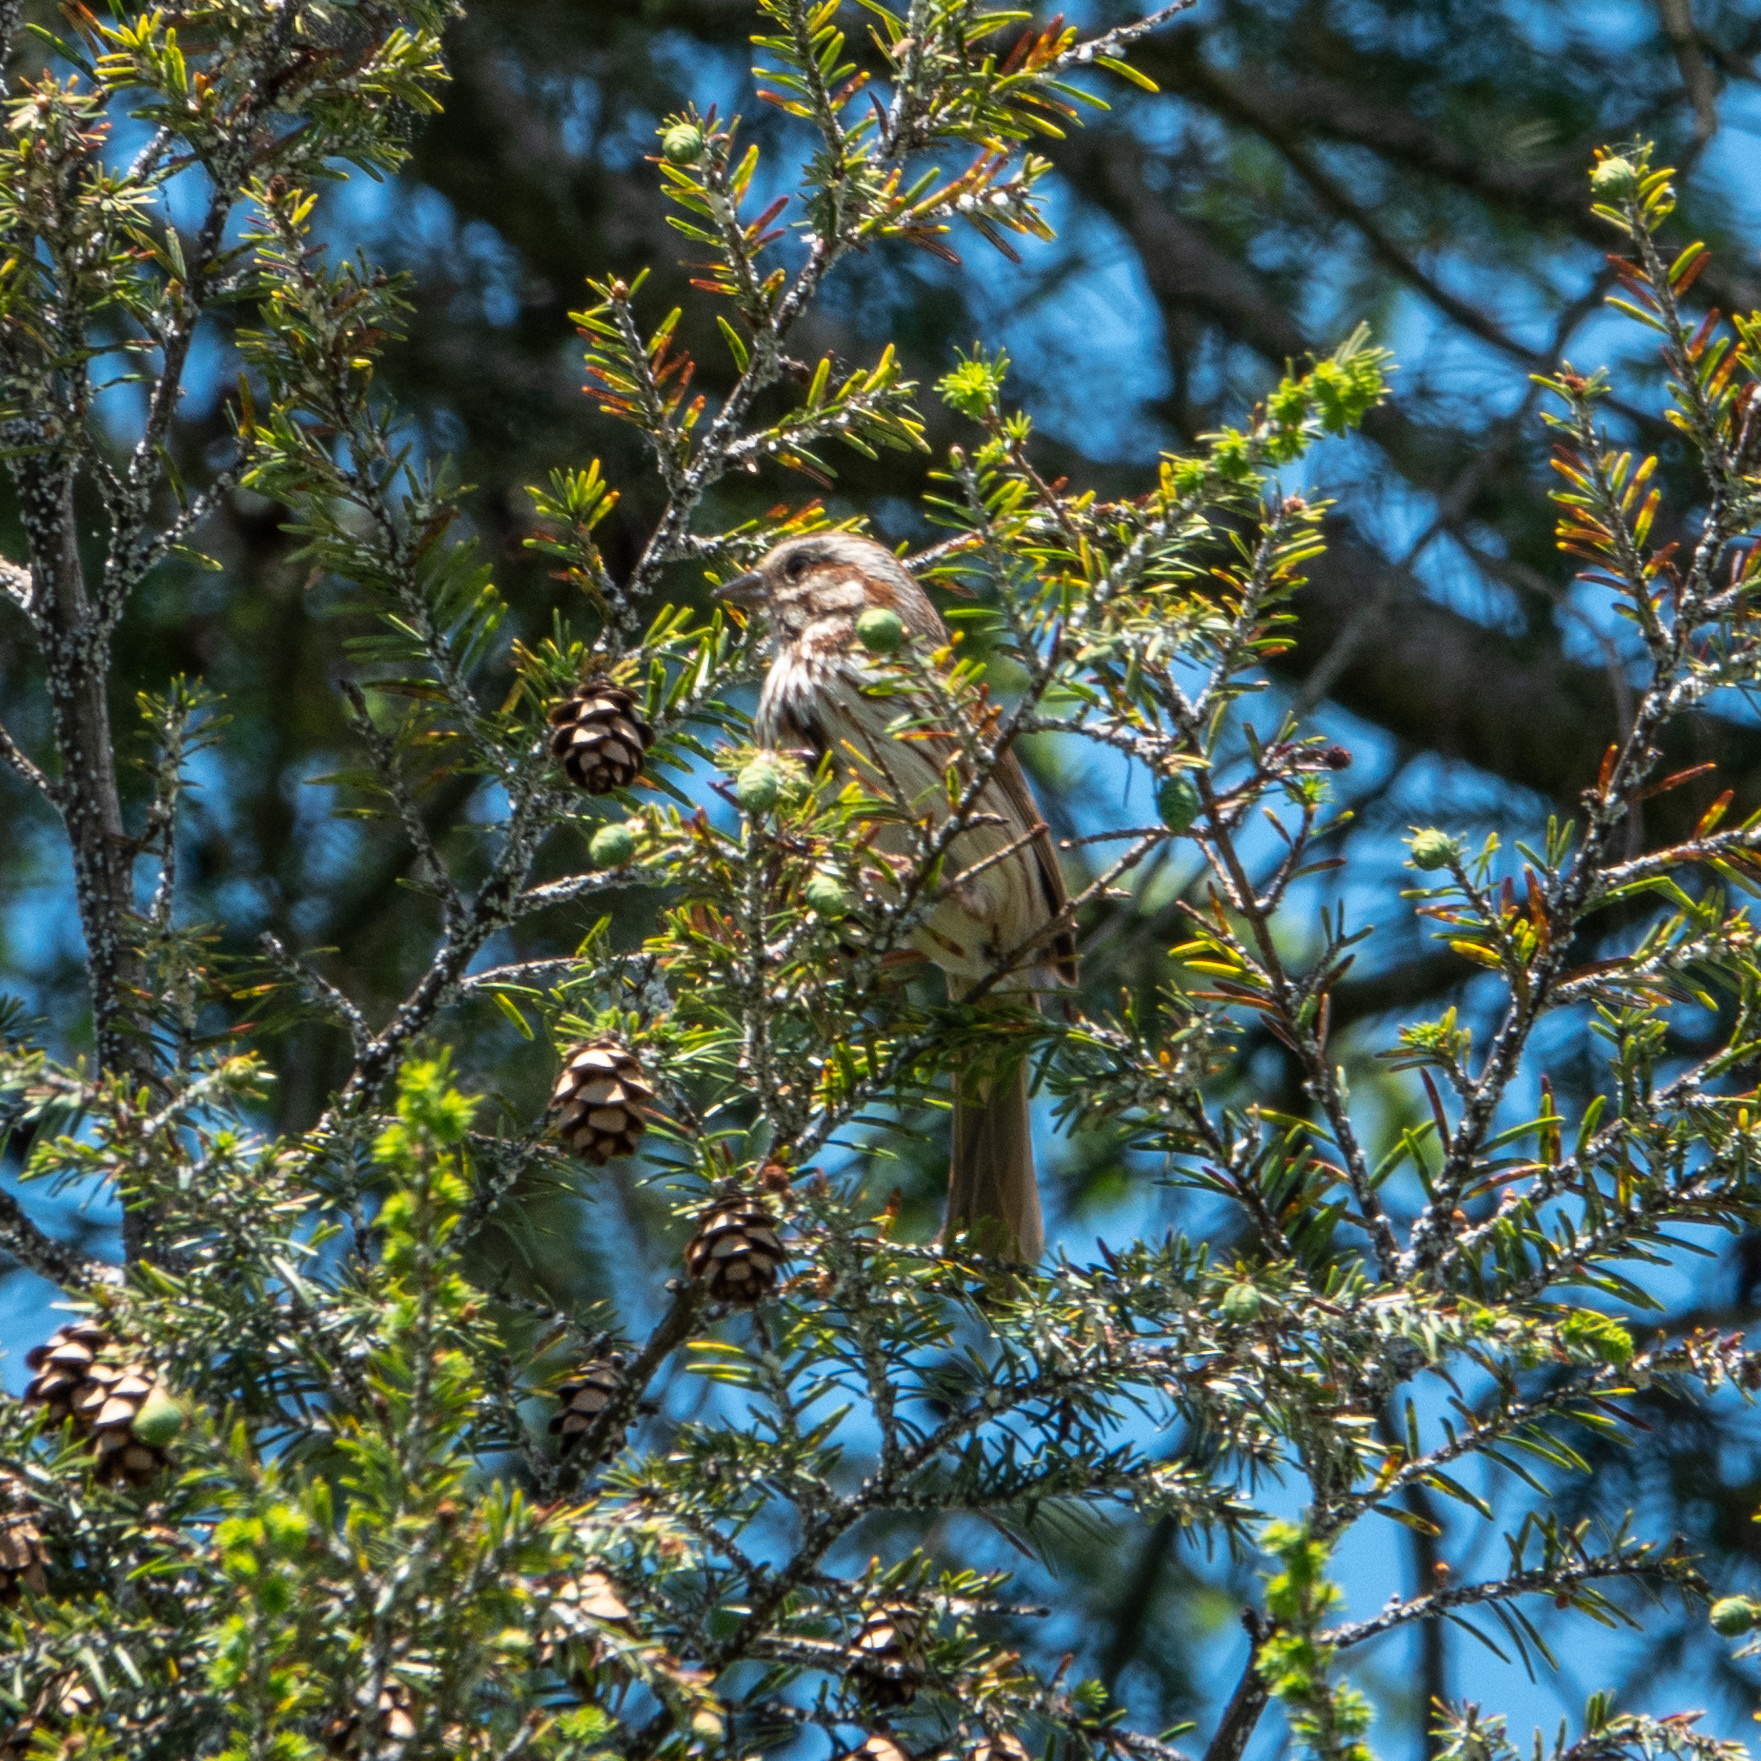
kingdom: Animalia
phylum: Chordata
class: Aves
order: Passeriformes
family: Passerellidae
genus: Melospiza
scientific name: Melospiza melodia
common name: Song sparrow
